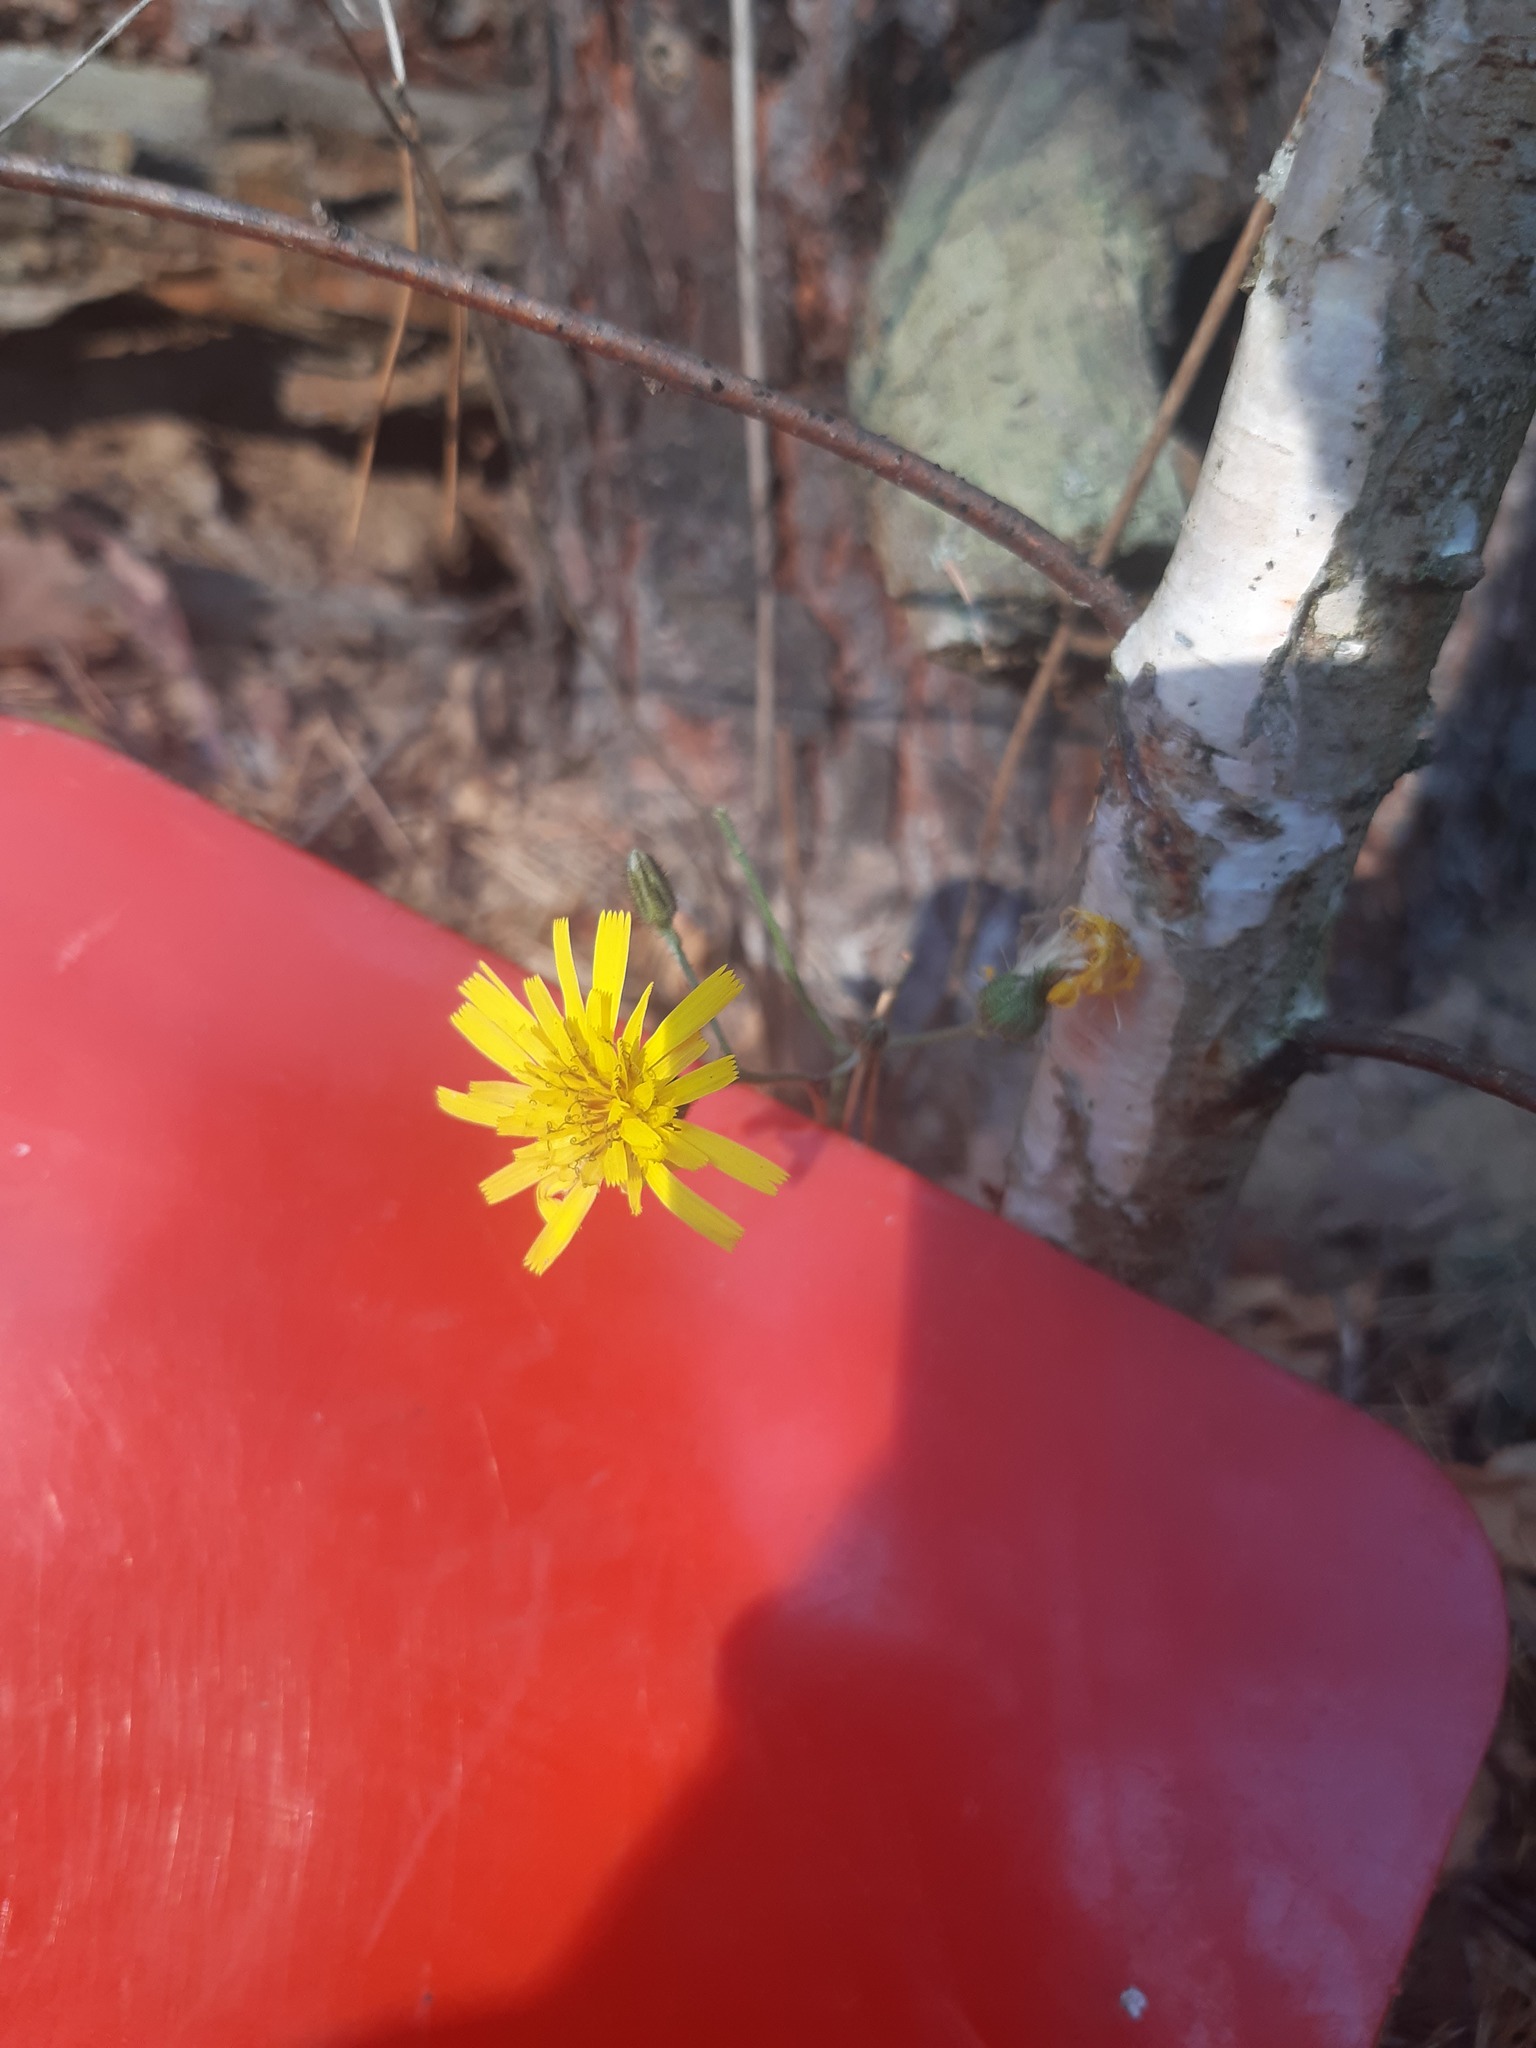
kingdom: Plantae
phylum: Tracheophyta
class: Magnoliopsida
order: Asterales
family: Asteraceae
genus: Hieracium
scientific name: Hieracium murorum
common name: Wall hawkweed
